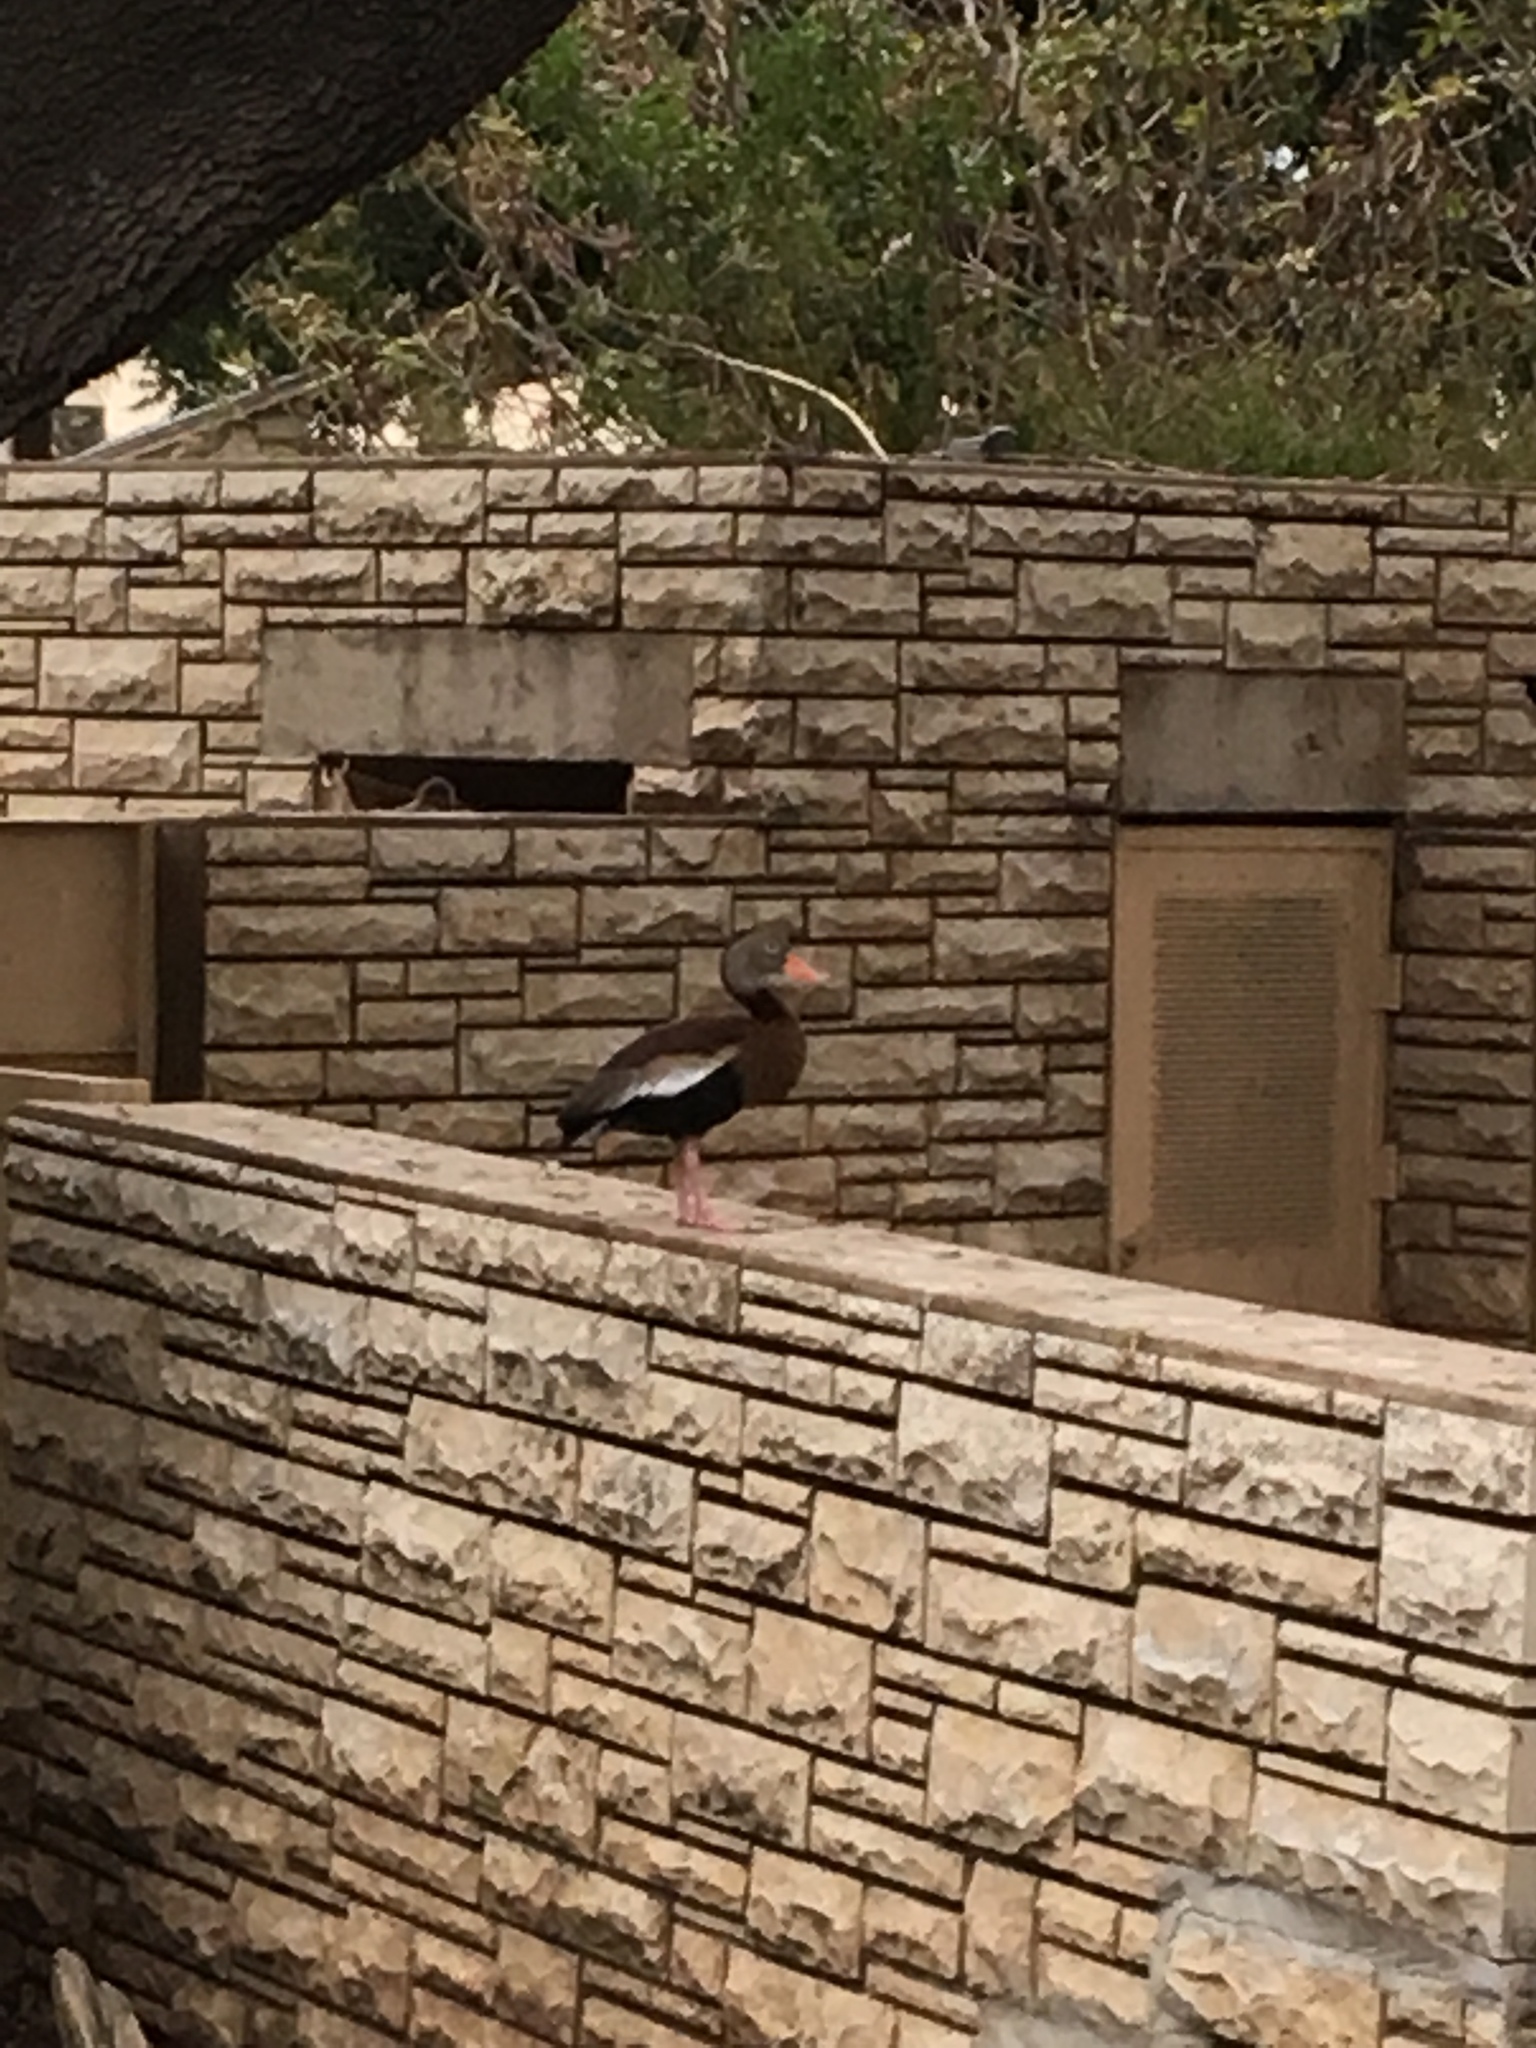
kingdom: Animalia
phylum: Chordata
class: Aves
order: Anseriformes
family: Anatidae
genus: Dendrocygna
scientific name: Dendrocygna autumnalis
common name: Black-bellied whistling duck
